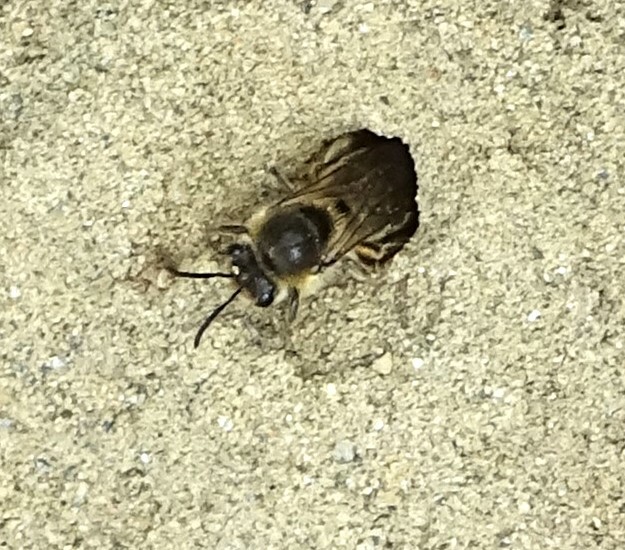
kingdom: Animalia
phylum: Arthropoda
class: Insecta
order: Hymenoptera
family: Colletidae
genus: Colletes
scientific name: Colletes inaequalis
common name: Unequal cellophane bee
